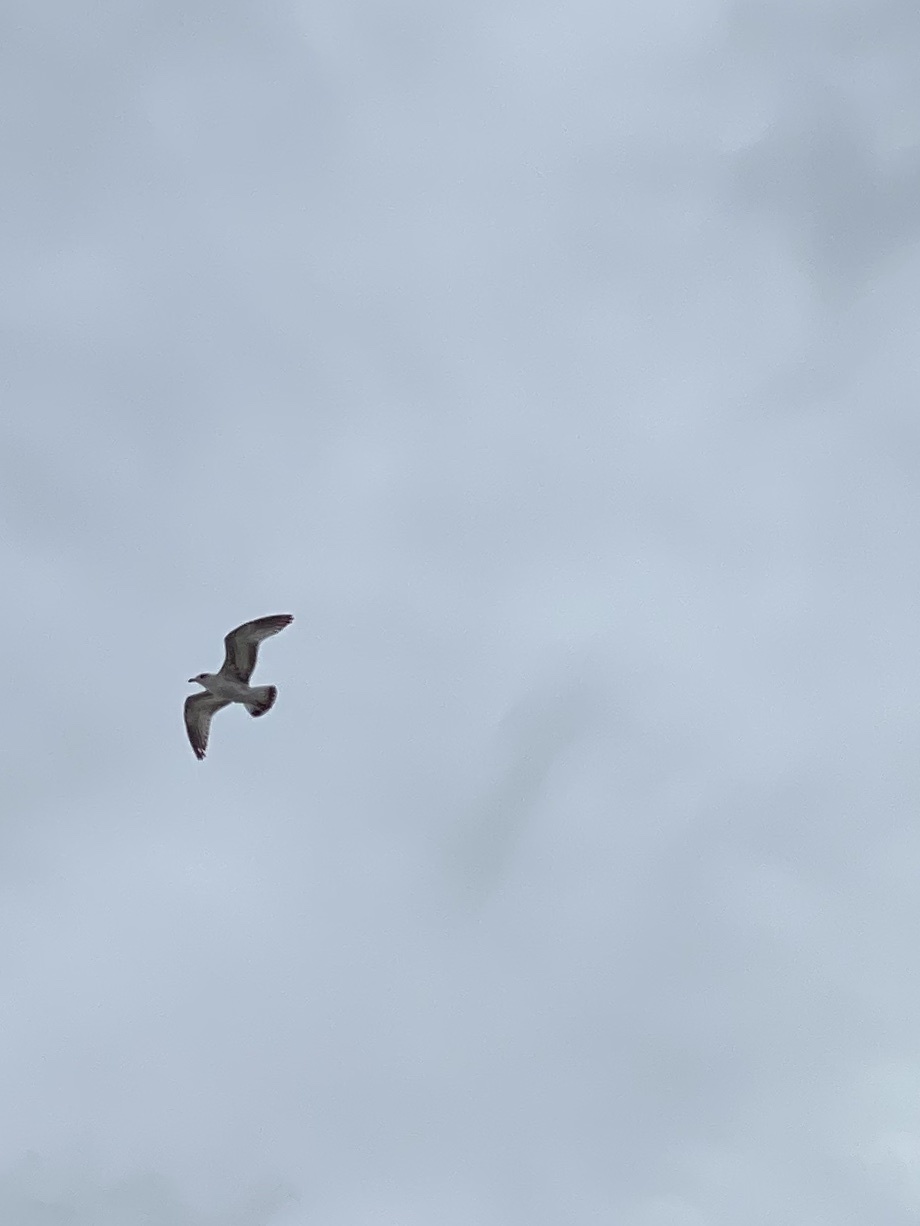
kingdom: Animalia
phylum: Chordata
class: Aves
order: Charadriiformes
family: Laridae
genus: Larus
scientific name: Larus delawarensis
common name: Ring-billed gull
